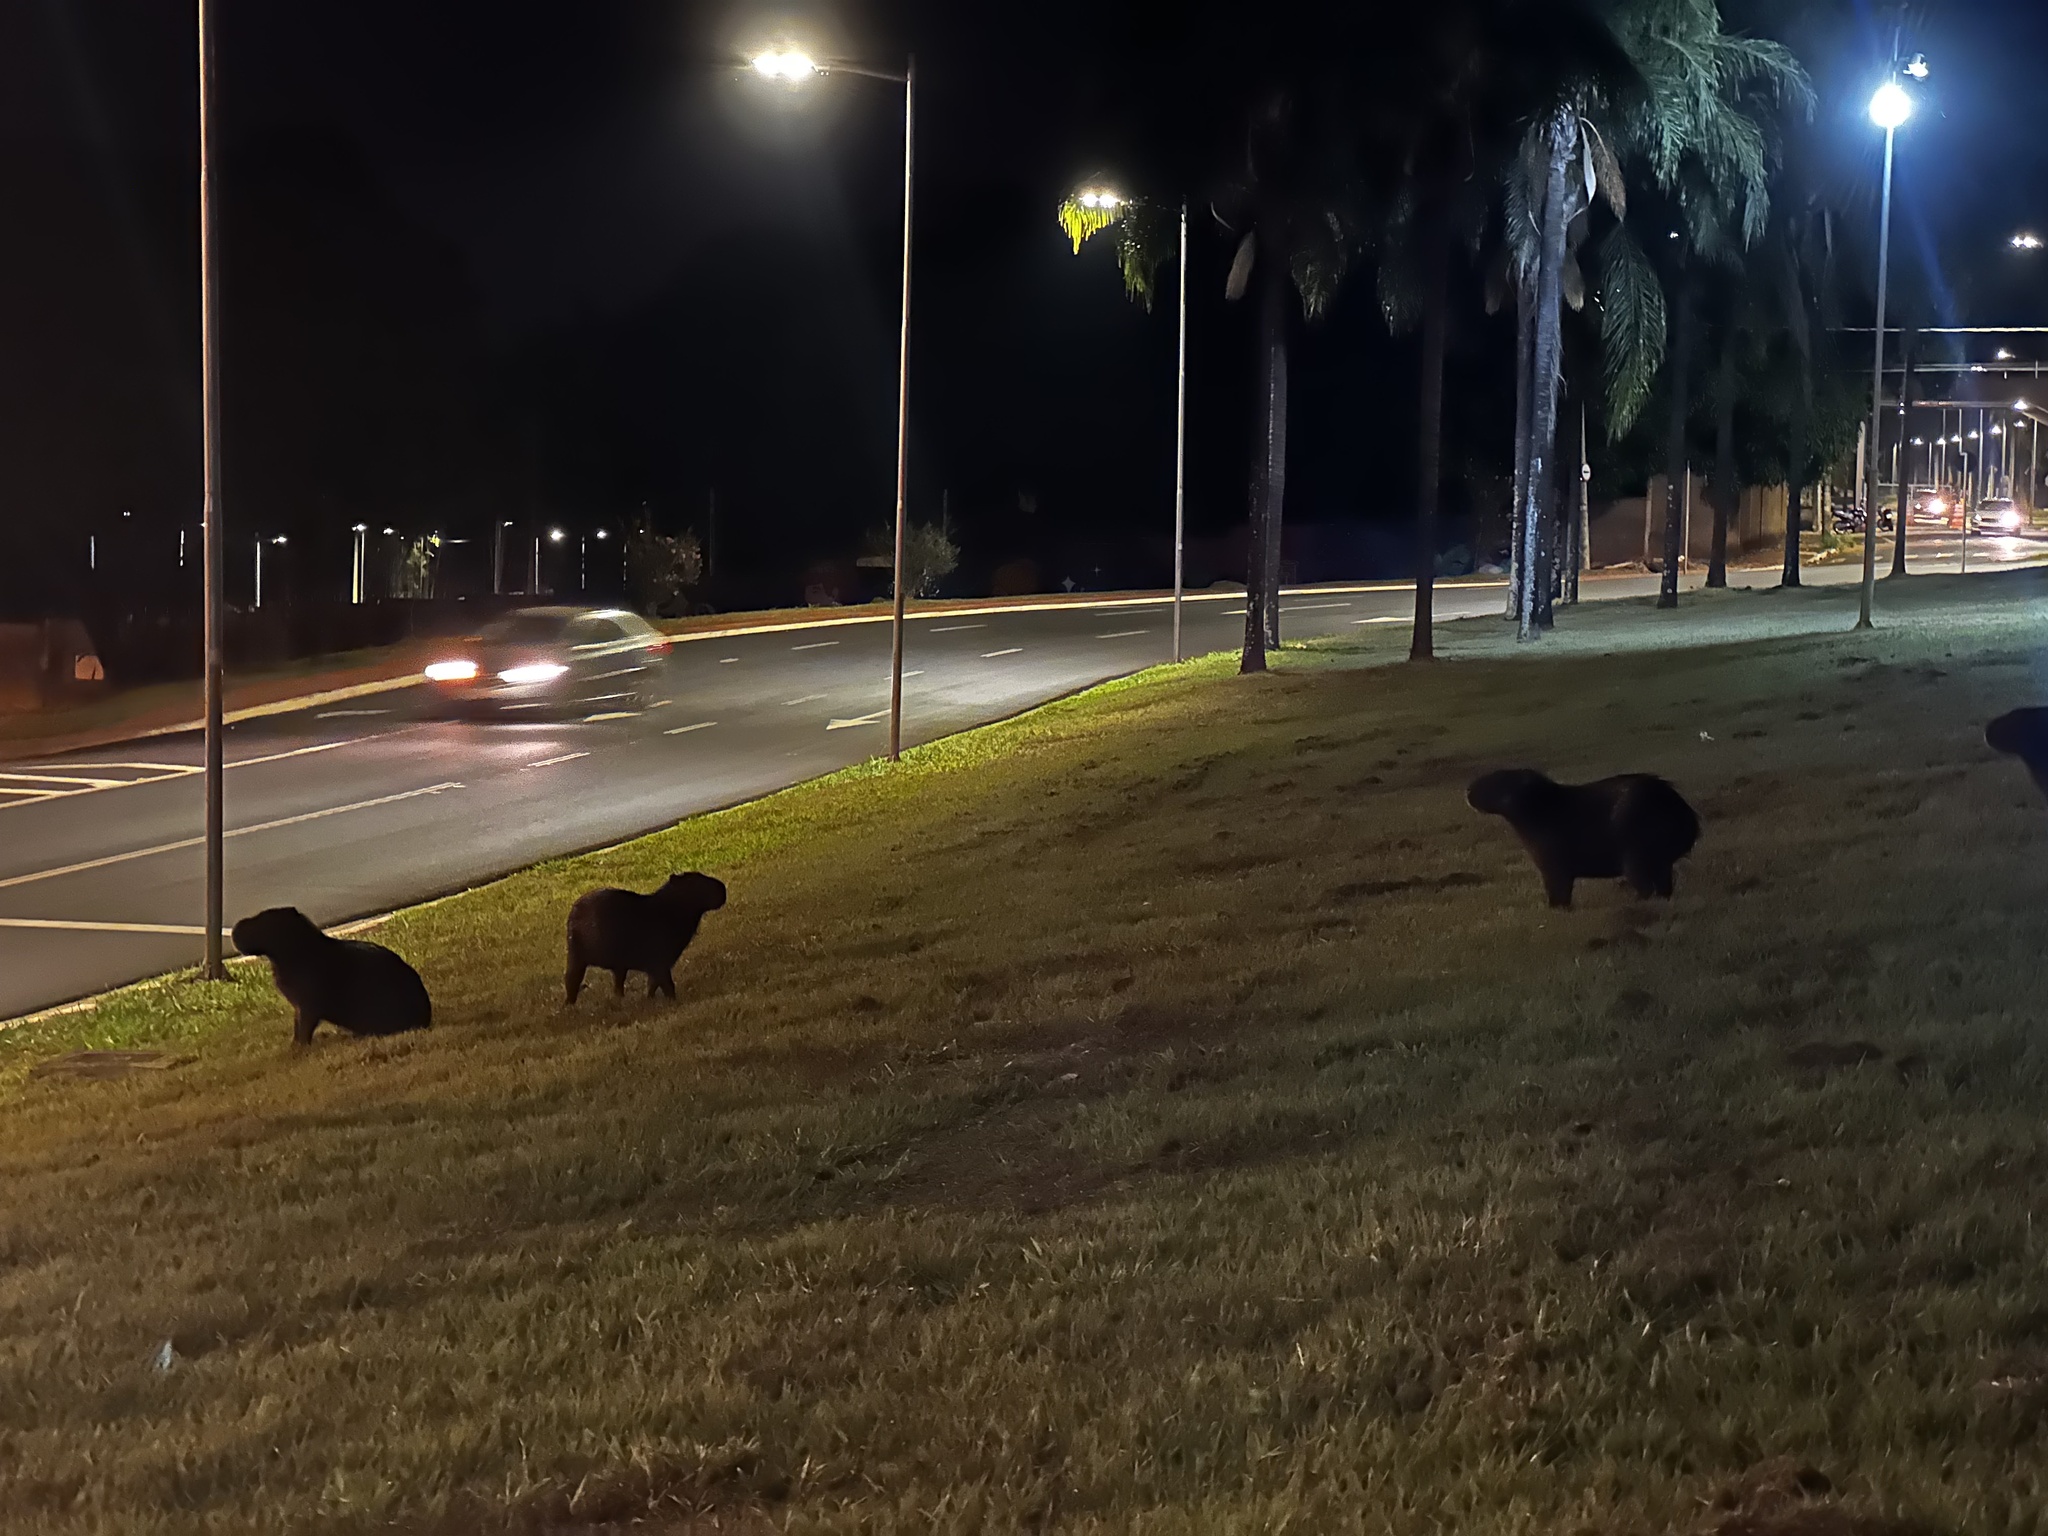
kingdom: Animalia
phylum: Chordata
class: Mammalia
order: Rodentia
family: Caviidae
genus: Hydrochoerus
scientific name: Hydrochoerus hydrochaeris
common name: Capybara
